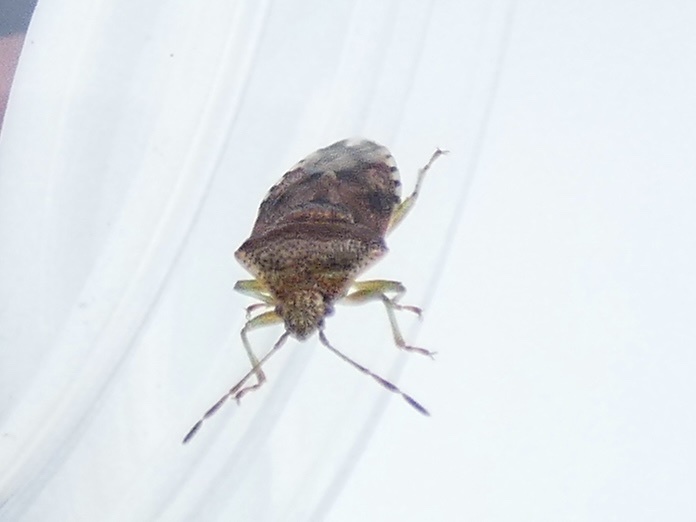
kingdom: Animalia
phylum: Arthropoda
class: Insecta
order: Hemiptera
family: Acanthosomatidae
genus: Elasmucha
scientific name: Elasmucha grisea
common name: Parent bug
